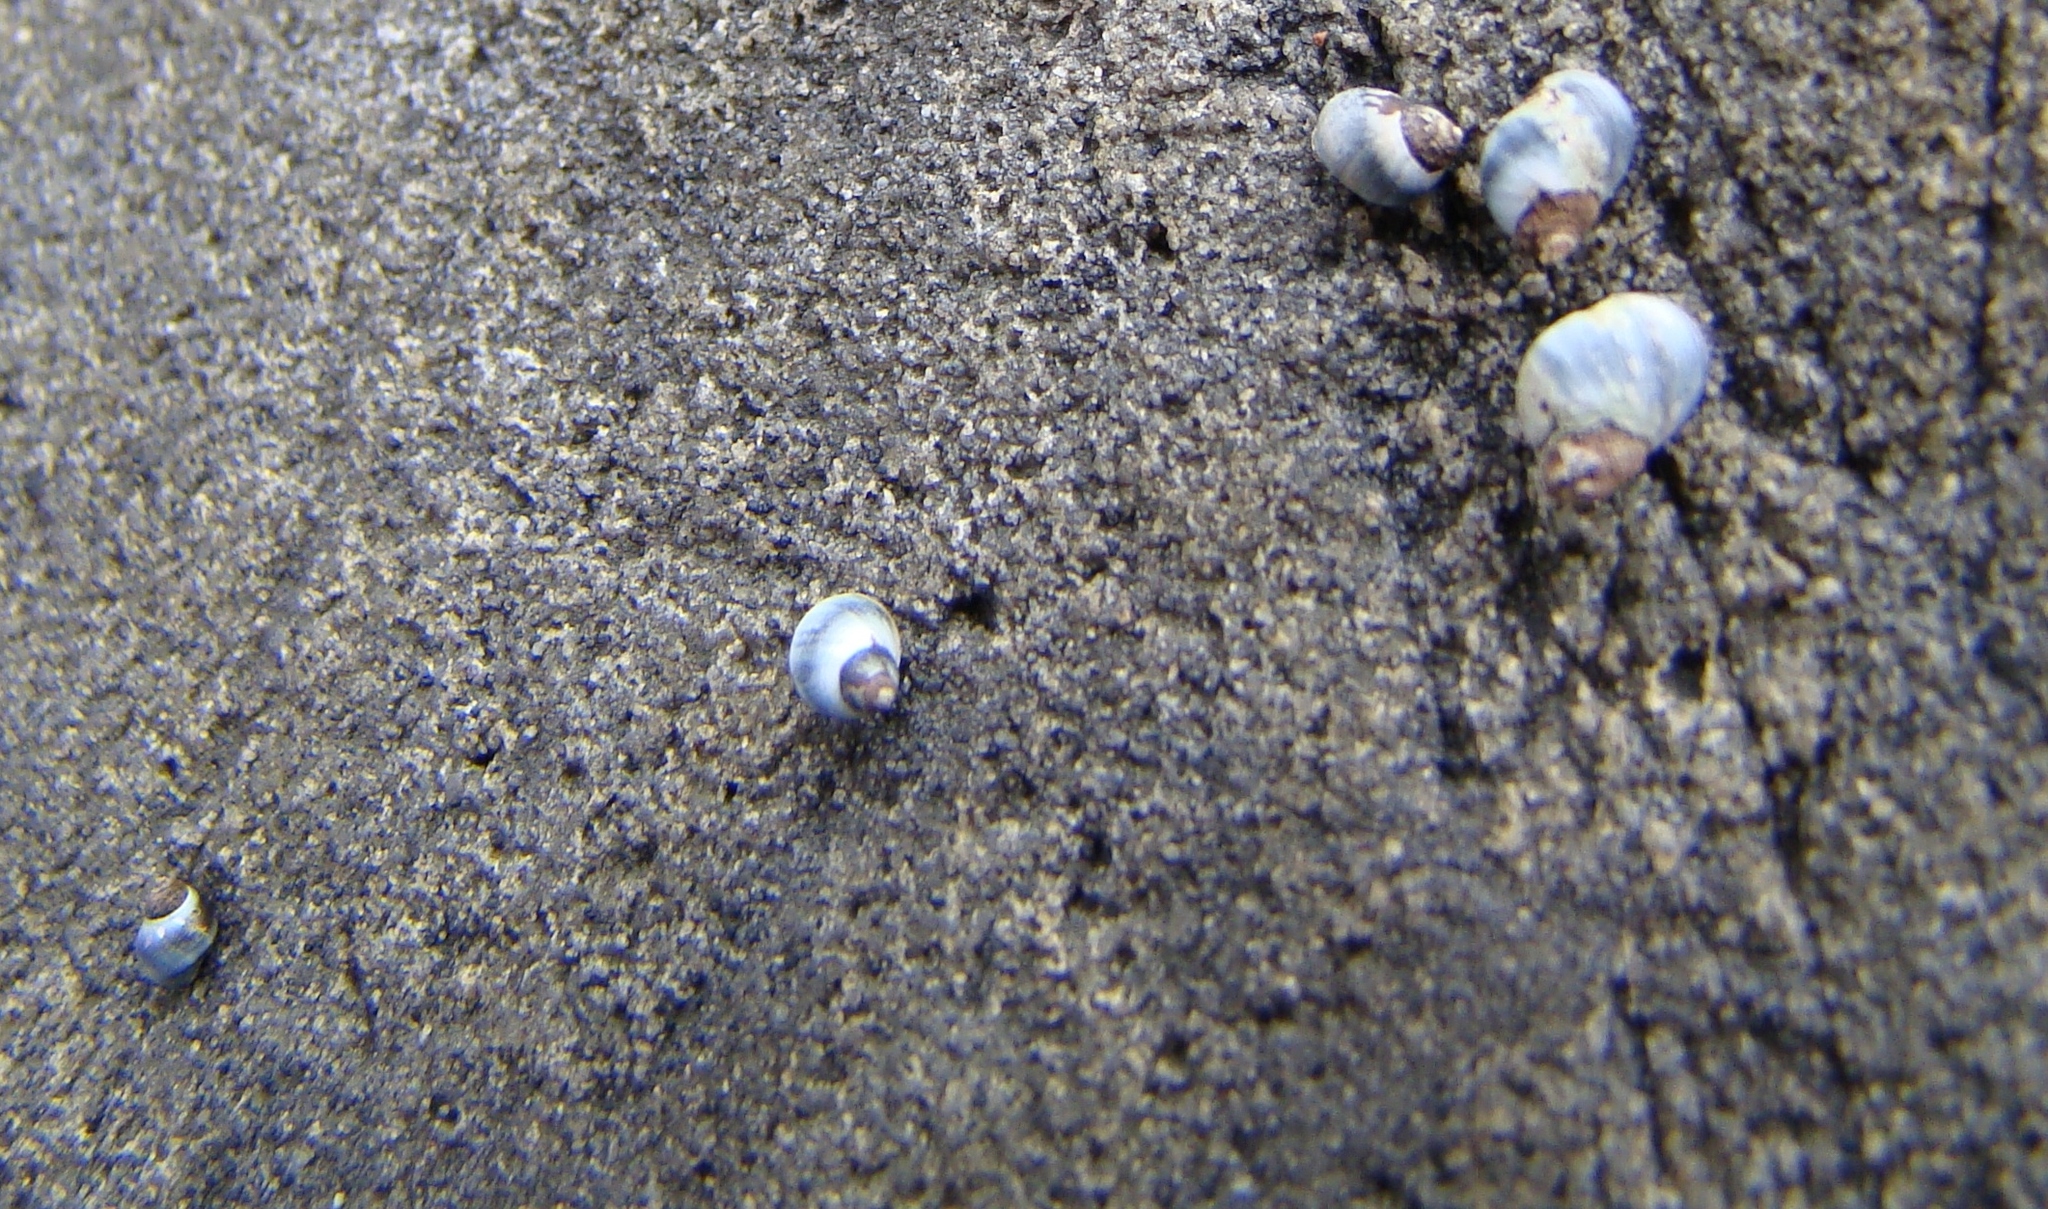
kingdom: Animalia
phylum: Mollusca
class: Gastropoda
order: Littorinimorpha
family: Littorinidae
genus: Austrolittorina
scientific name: Austrolittorina antipodum
